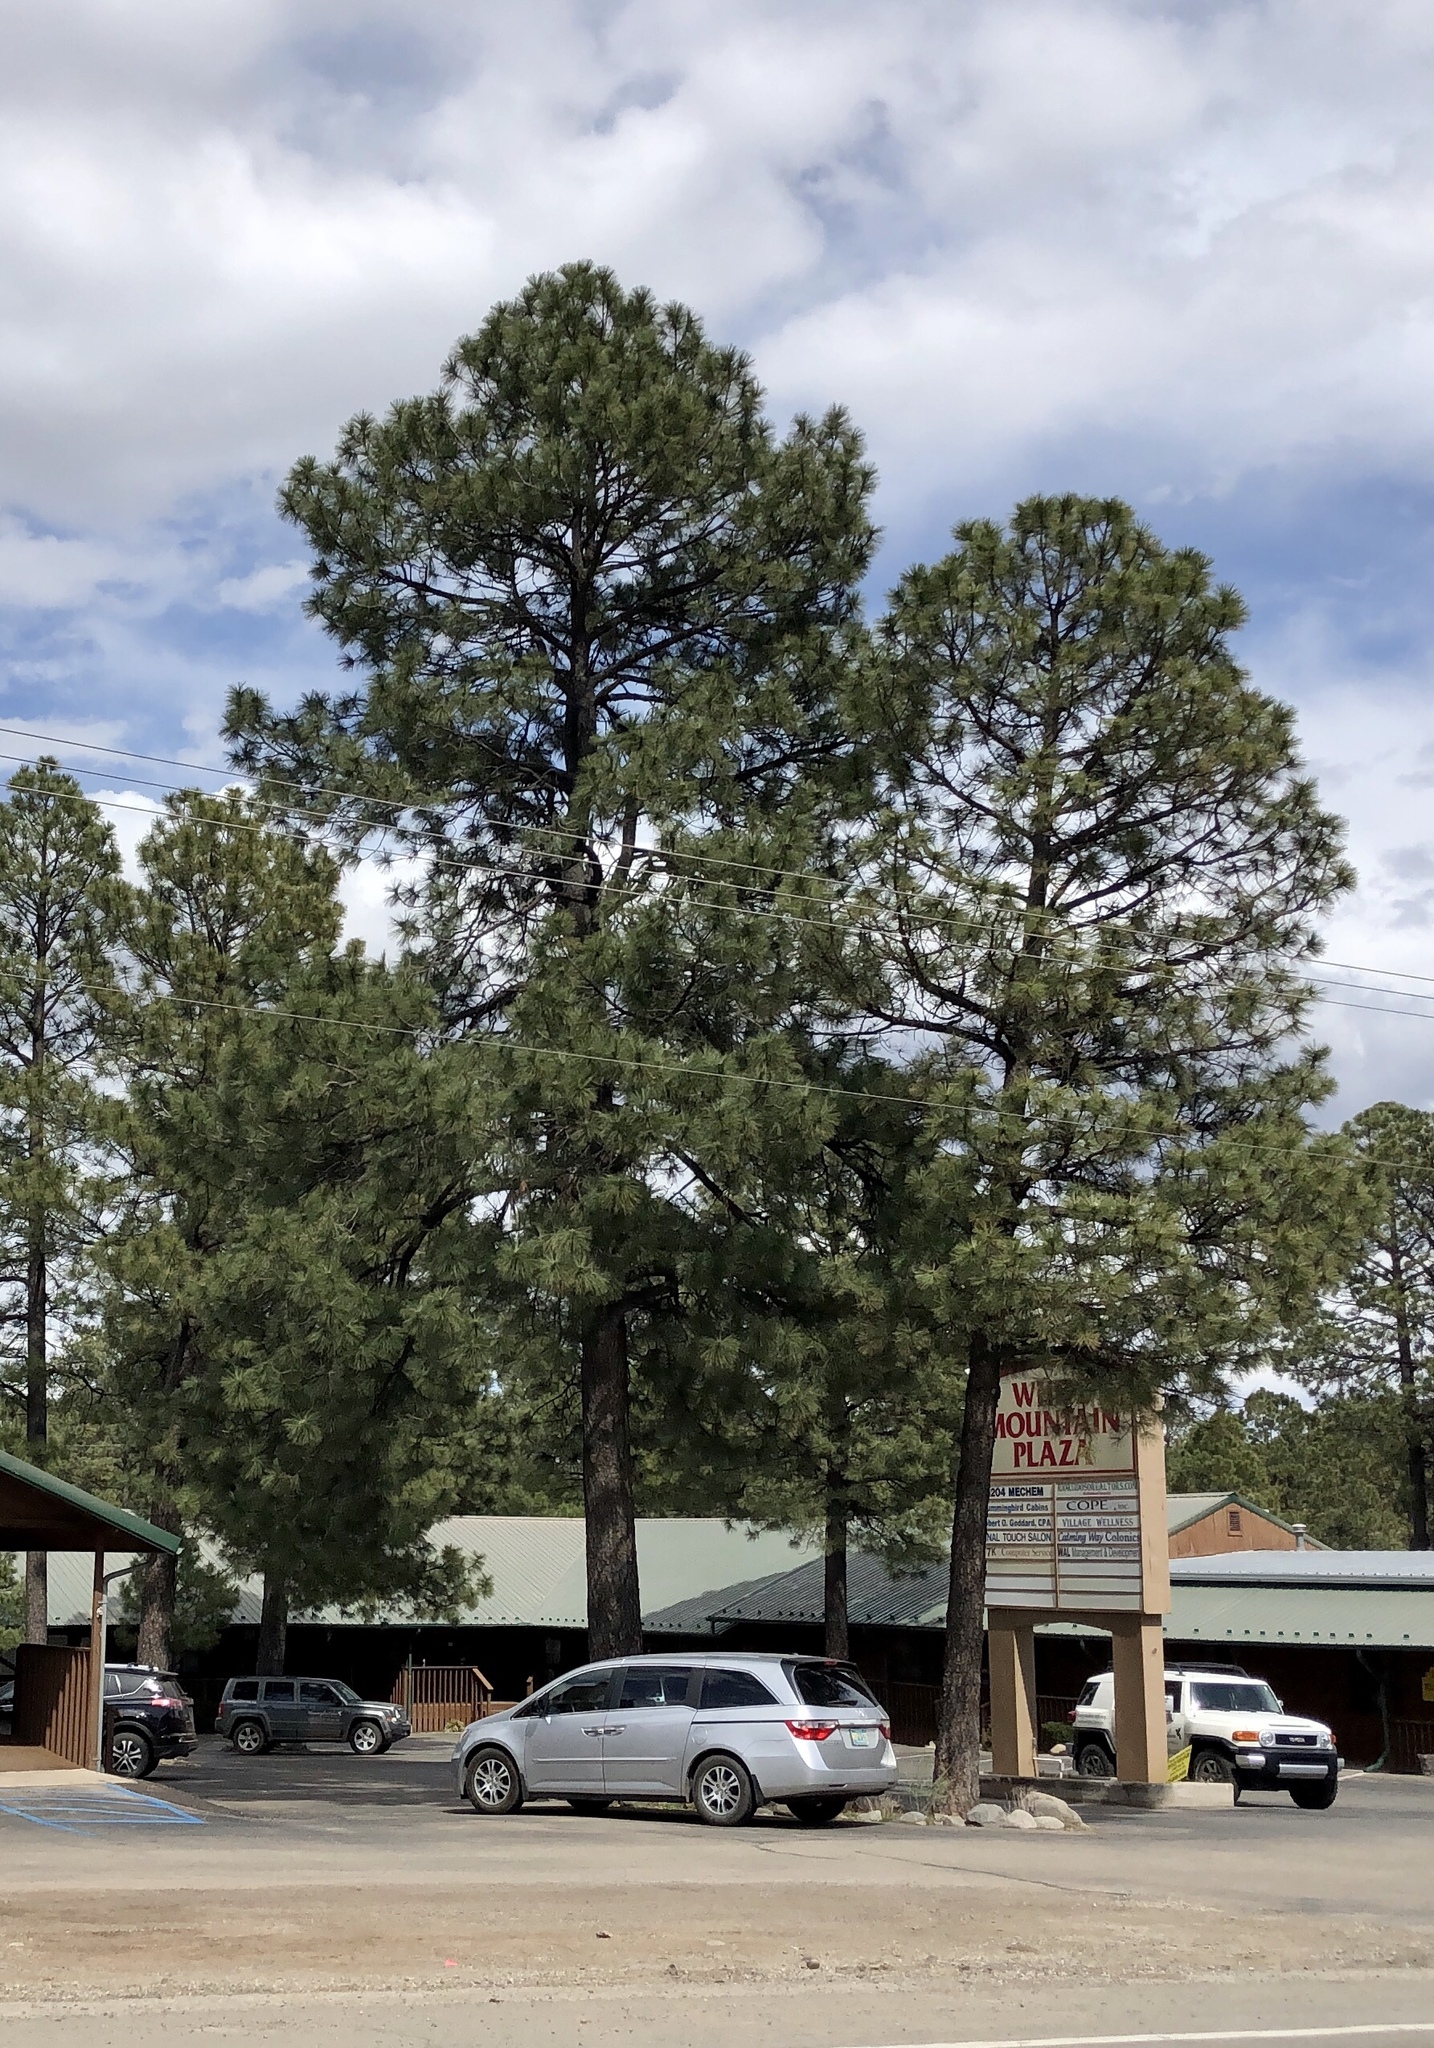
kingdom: Plantae
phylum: Tracheophyta
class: Pinopsida
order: Pinales
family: Pinaceae
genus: Pinus
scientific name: Pinus ponderosa
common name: Western yellow-pine
